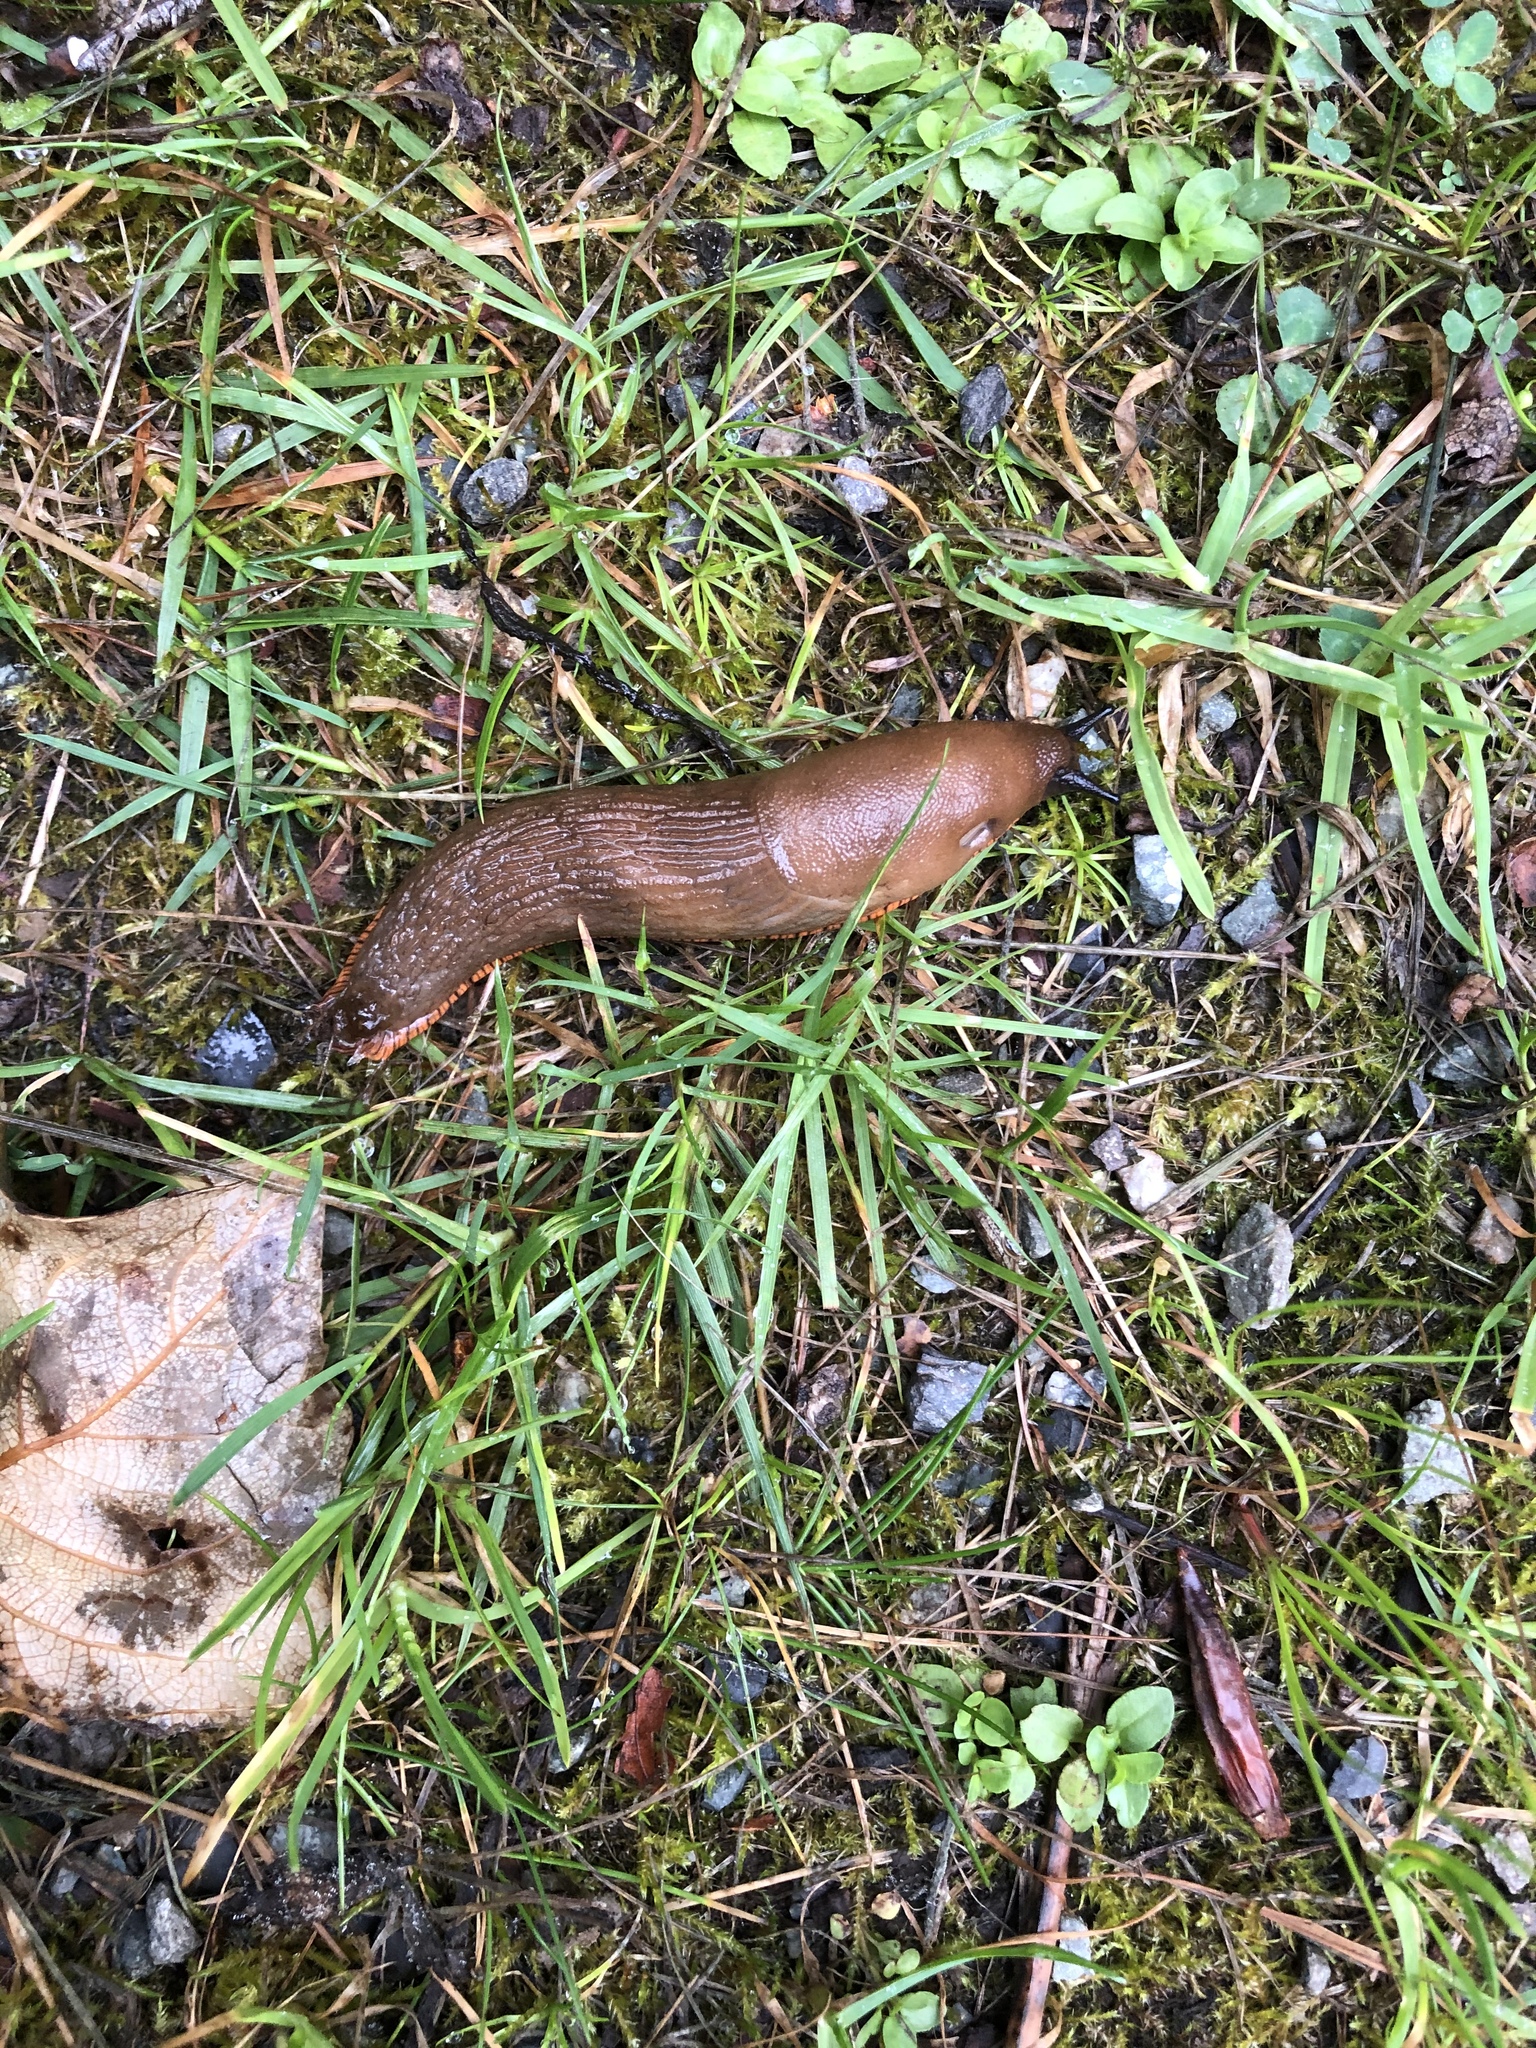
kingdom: Animalia
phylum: Mollusca
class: Gastropoda
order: Stylommatophora
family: Arionidae
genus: Arion
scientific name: Arion rufus
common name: Chocolate arion
